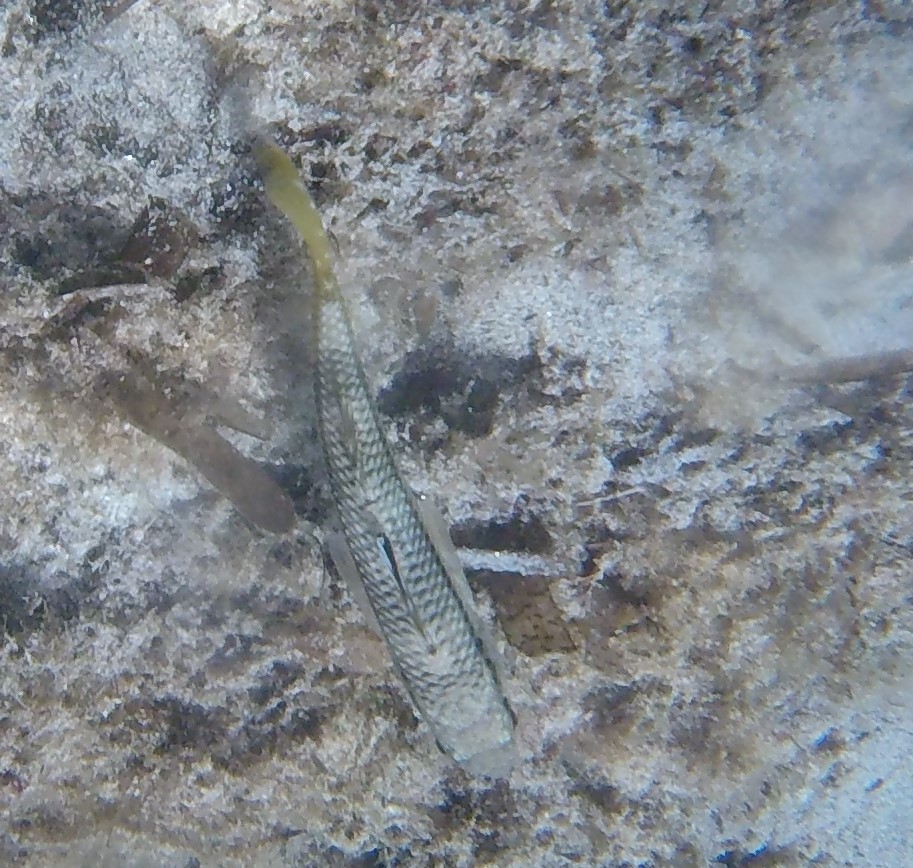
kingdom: Animalia
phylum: Chordata
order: Perciformes
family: Mullidae
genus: Mullus
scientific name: Mullus surmuletus
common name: Red mullet
